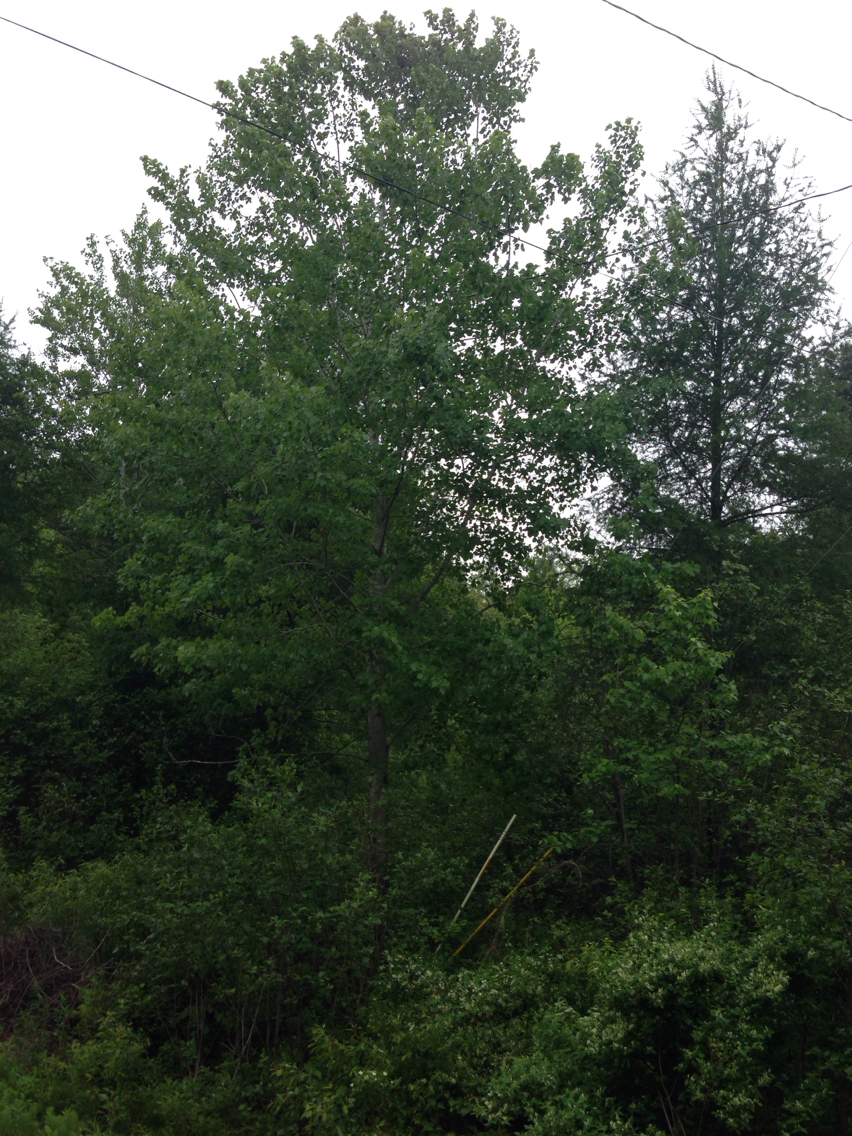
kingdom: Plantae
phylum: Tracheophyta
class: Magnoliopsida
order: Malpighiales
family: Salicaceae
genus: Populus
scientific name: Populus tremuloides
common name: Quaking aspen
